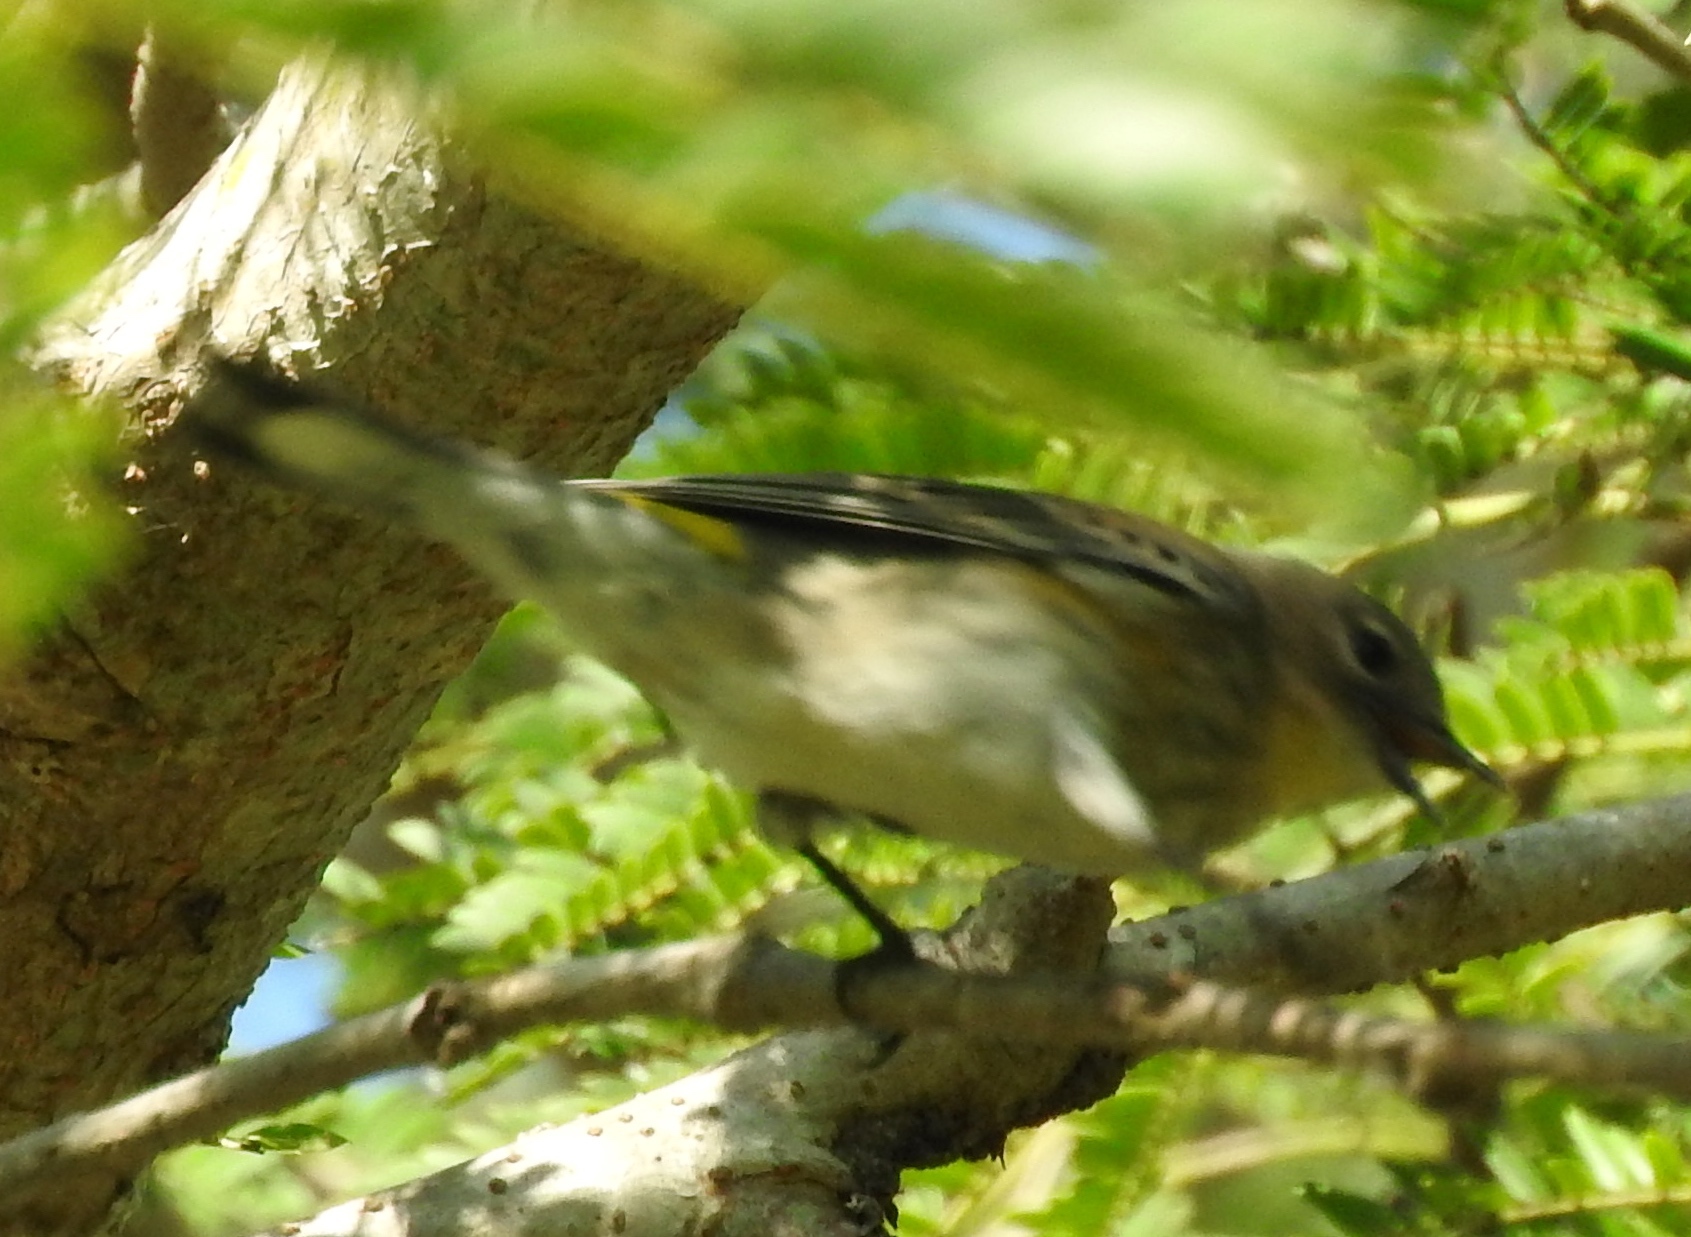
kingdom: Animalia
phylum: Chordata
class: Aves
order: Passeriformes
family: Parulidae
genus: Setophaga
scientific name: Setophaga coronata
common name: Myrtle warbler
